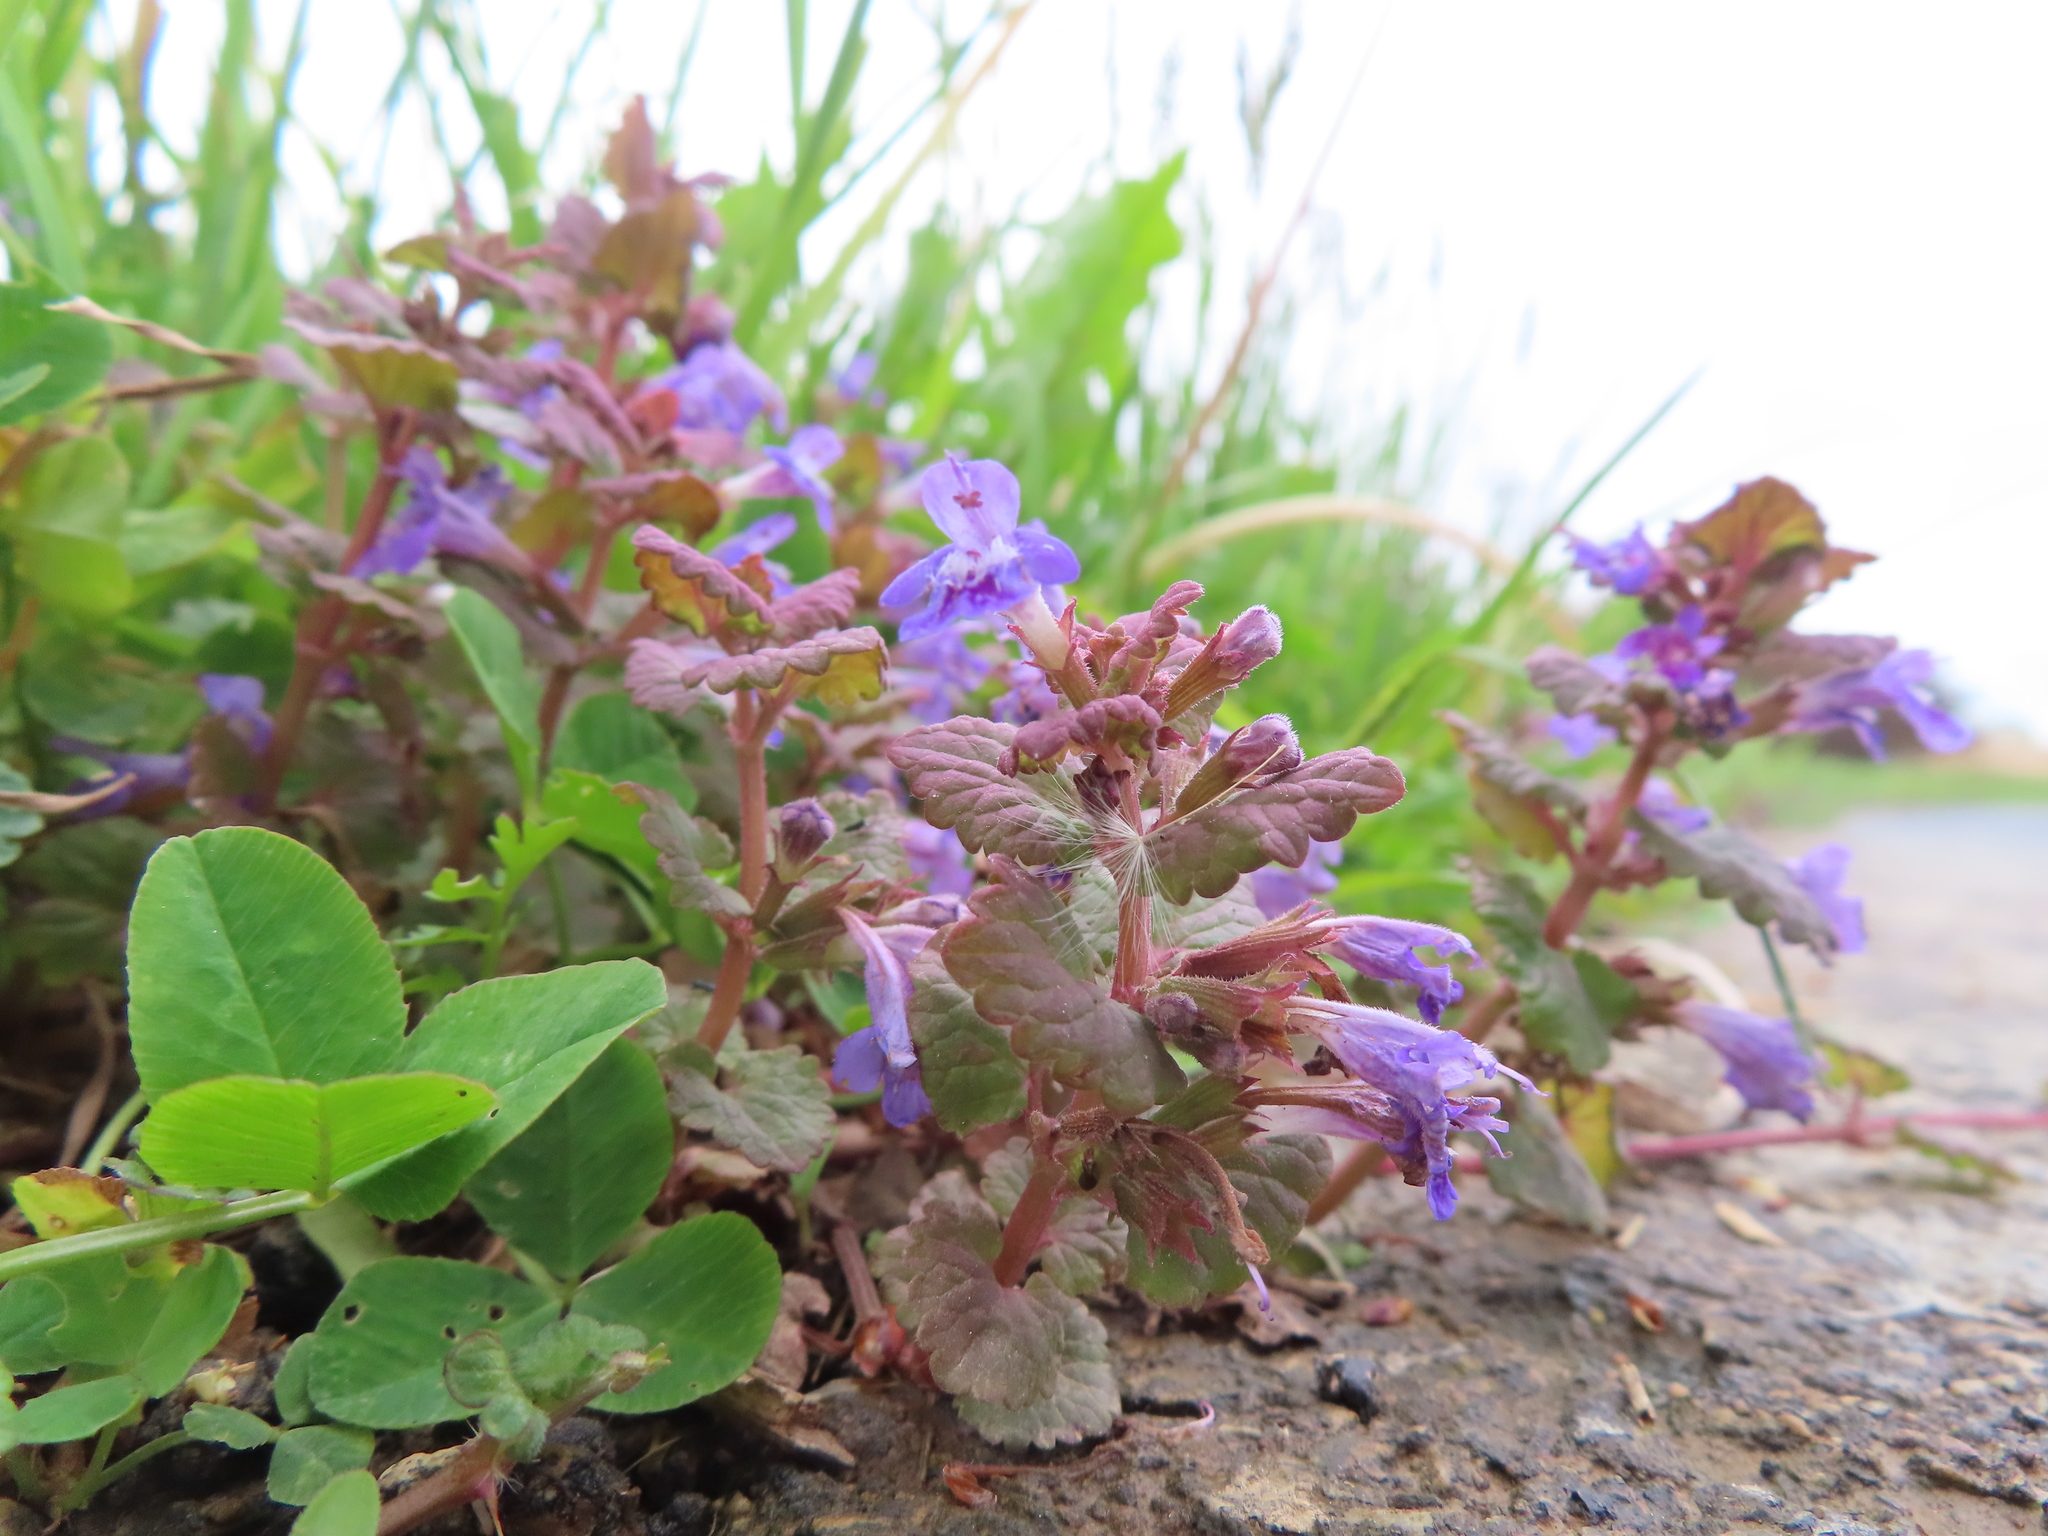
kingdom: Plantae
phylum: Tracheophyta
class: Magnoliopsida
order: Lamiales
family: Lamiaceae
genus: Glechoma
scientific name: Glechoma hederacea
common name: Ground ivy
